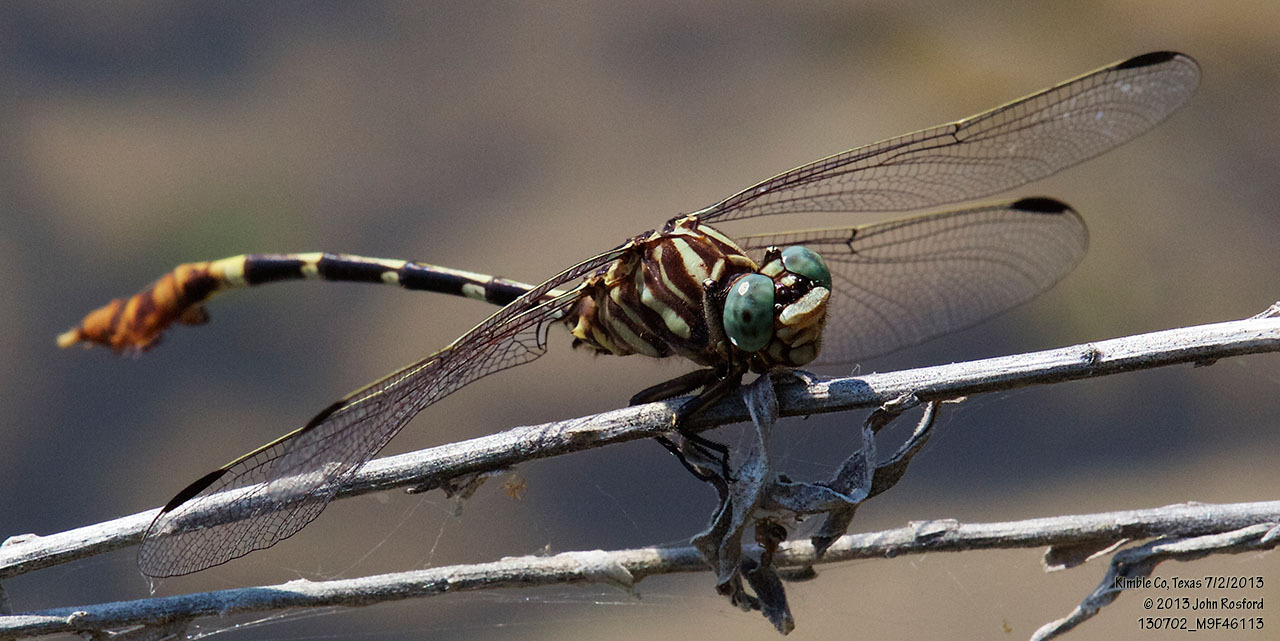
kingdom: Animalia
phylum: Arthropoda
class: Insecta
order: Odonata
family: Gomphidae
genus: Phyllogomphoides
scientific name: Phyllogomphoides albrighti
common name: Five-striped leaftail
